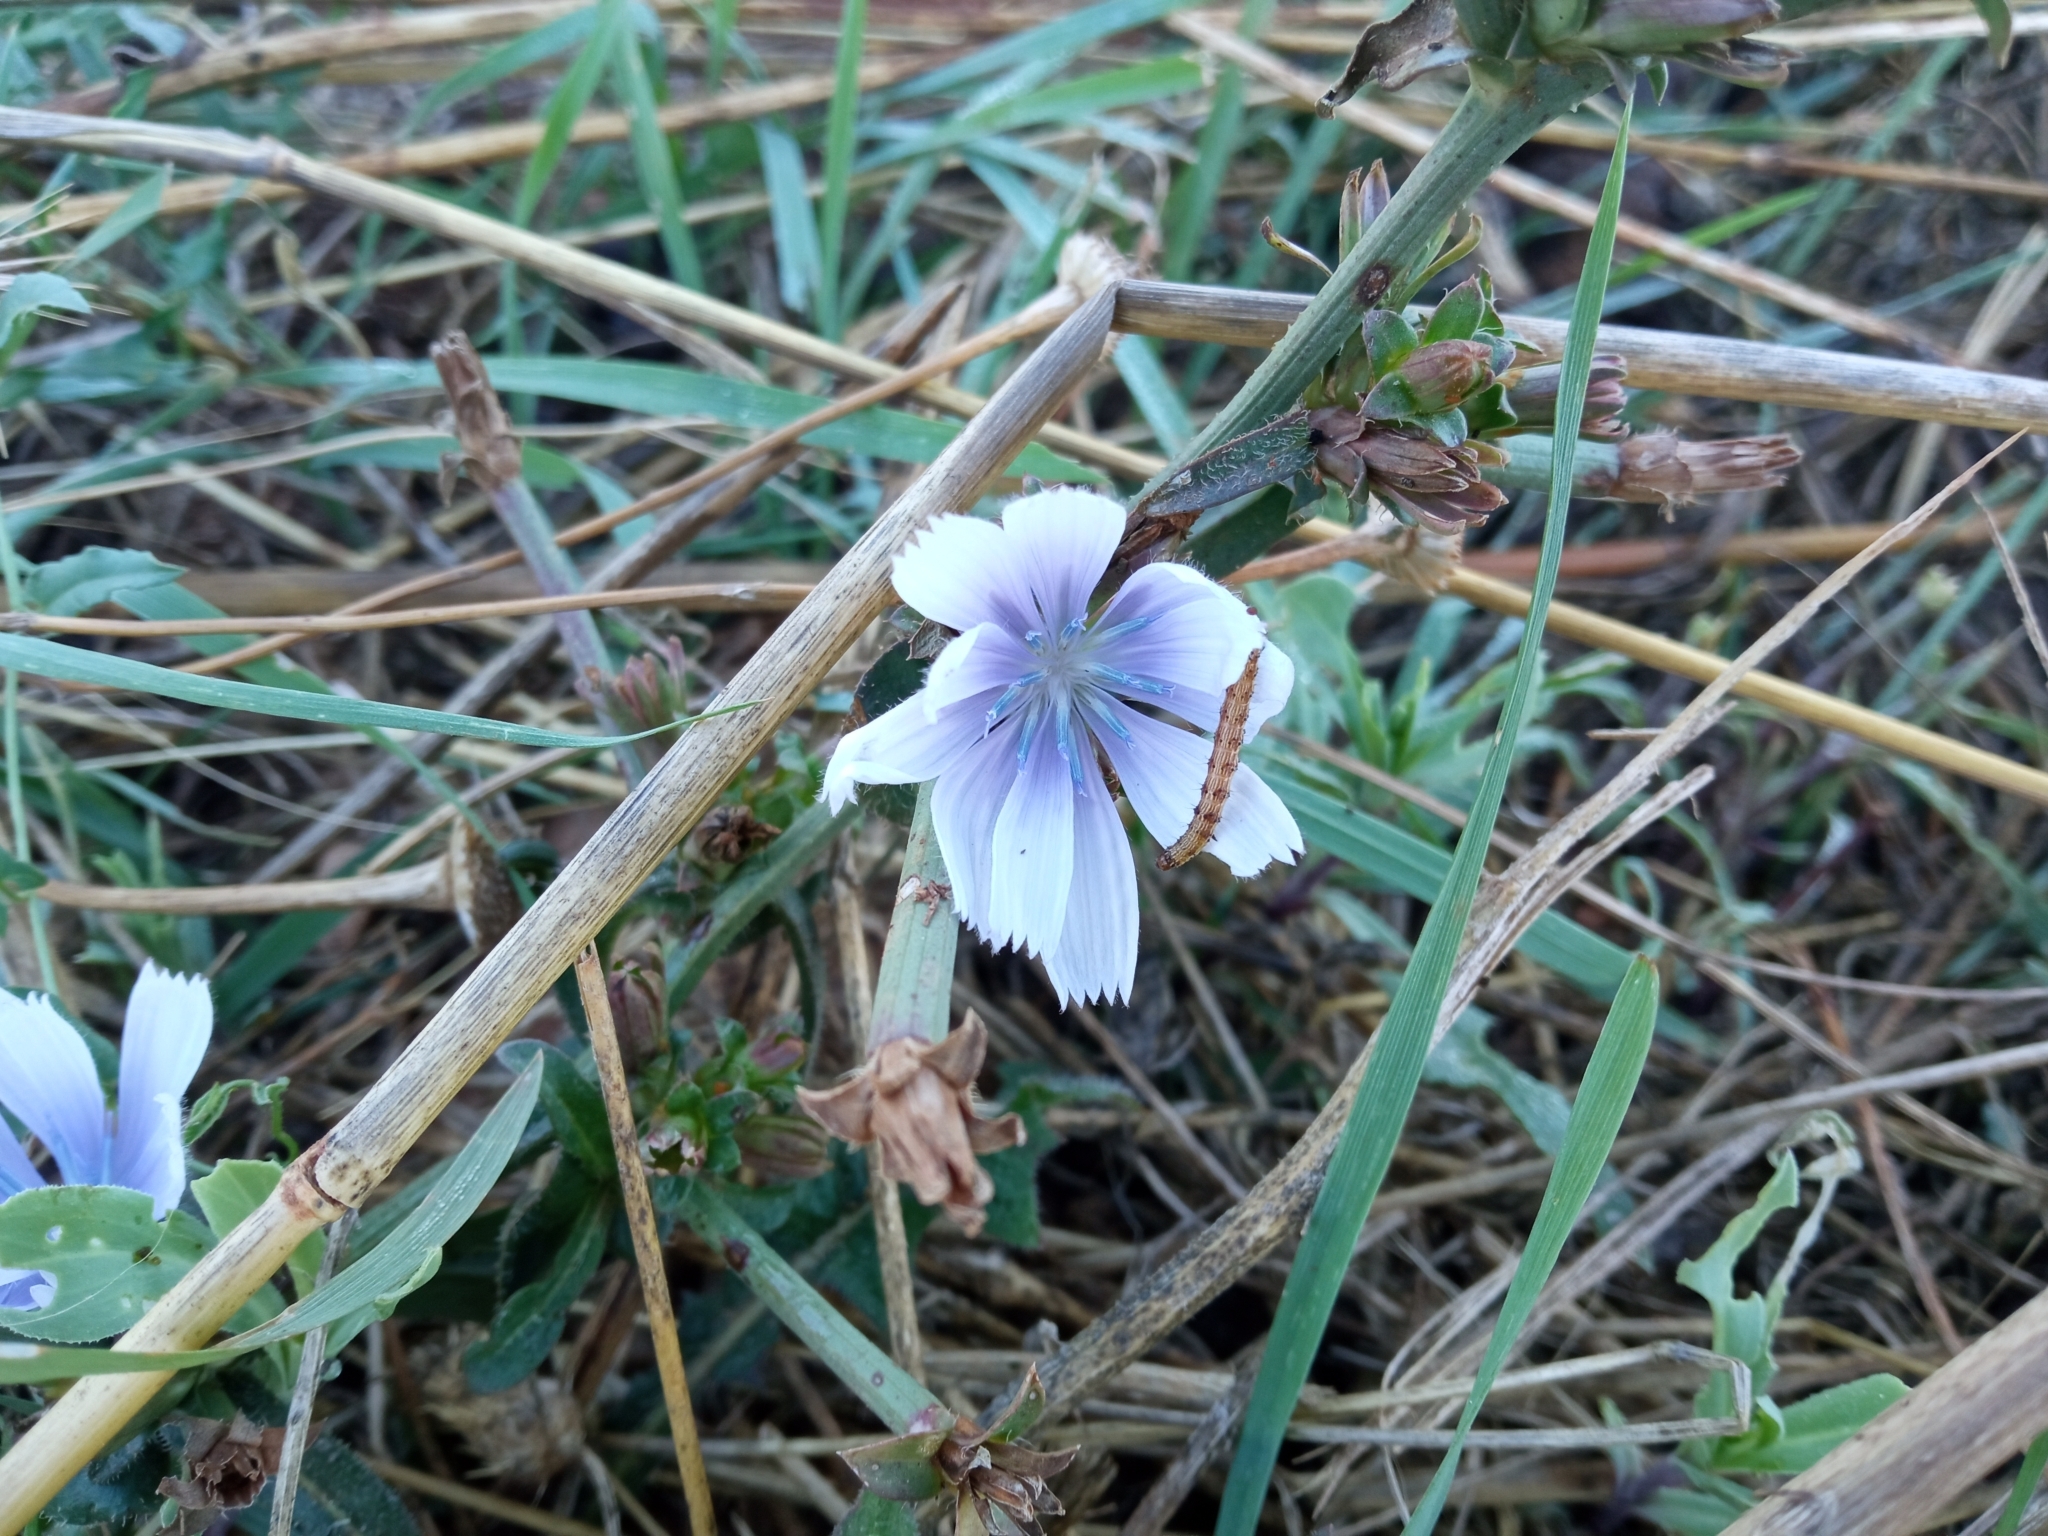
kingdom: Plantae
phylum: Tracheophyta
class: Magnoliopsida
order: Asterales
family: Asteraceae
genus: Cichorium
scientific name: Cichorium intybus
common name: Chicory
